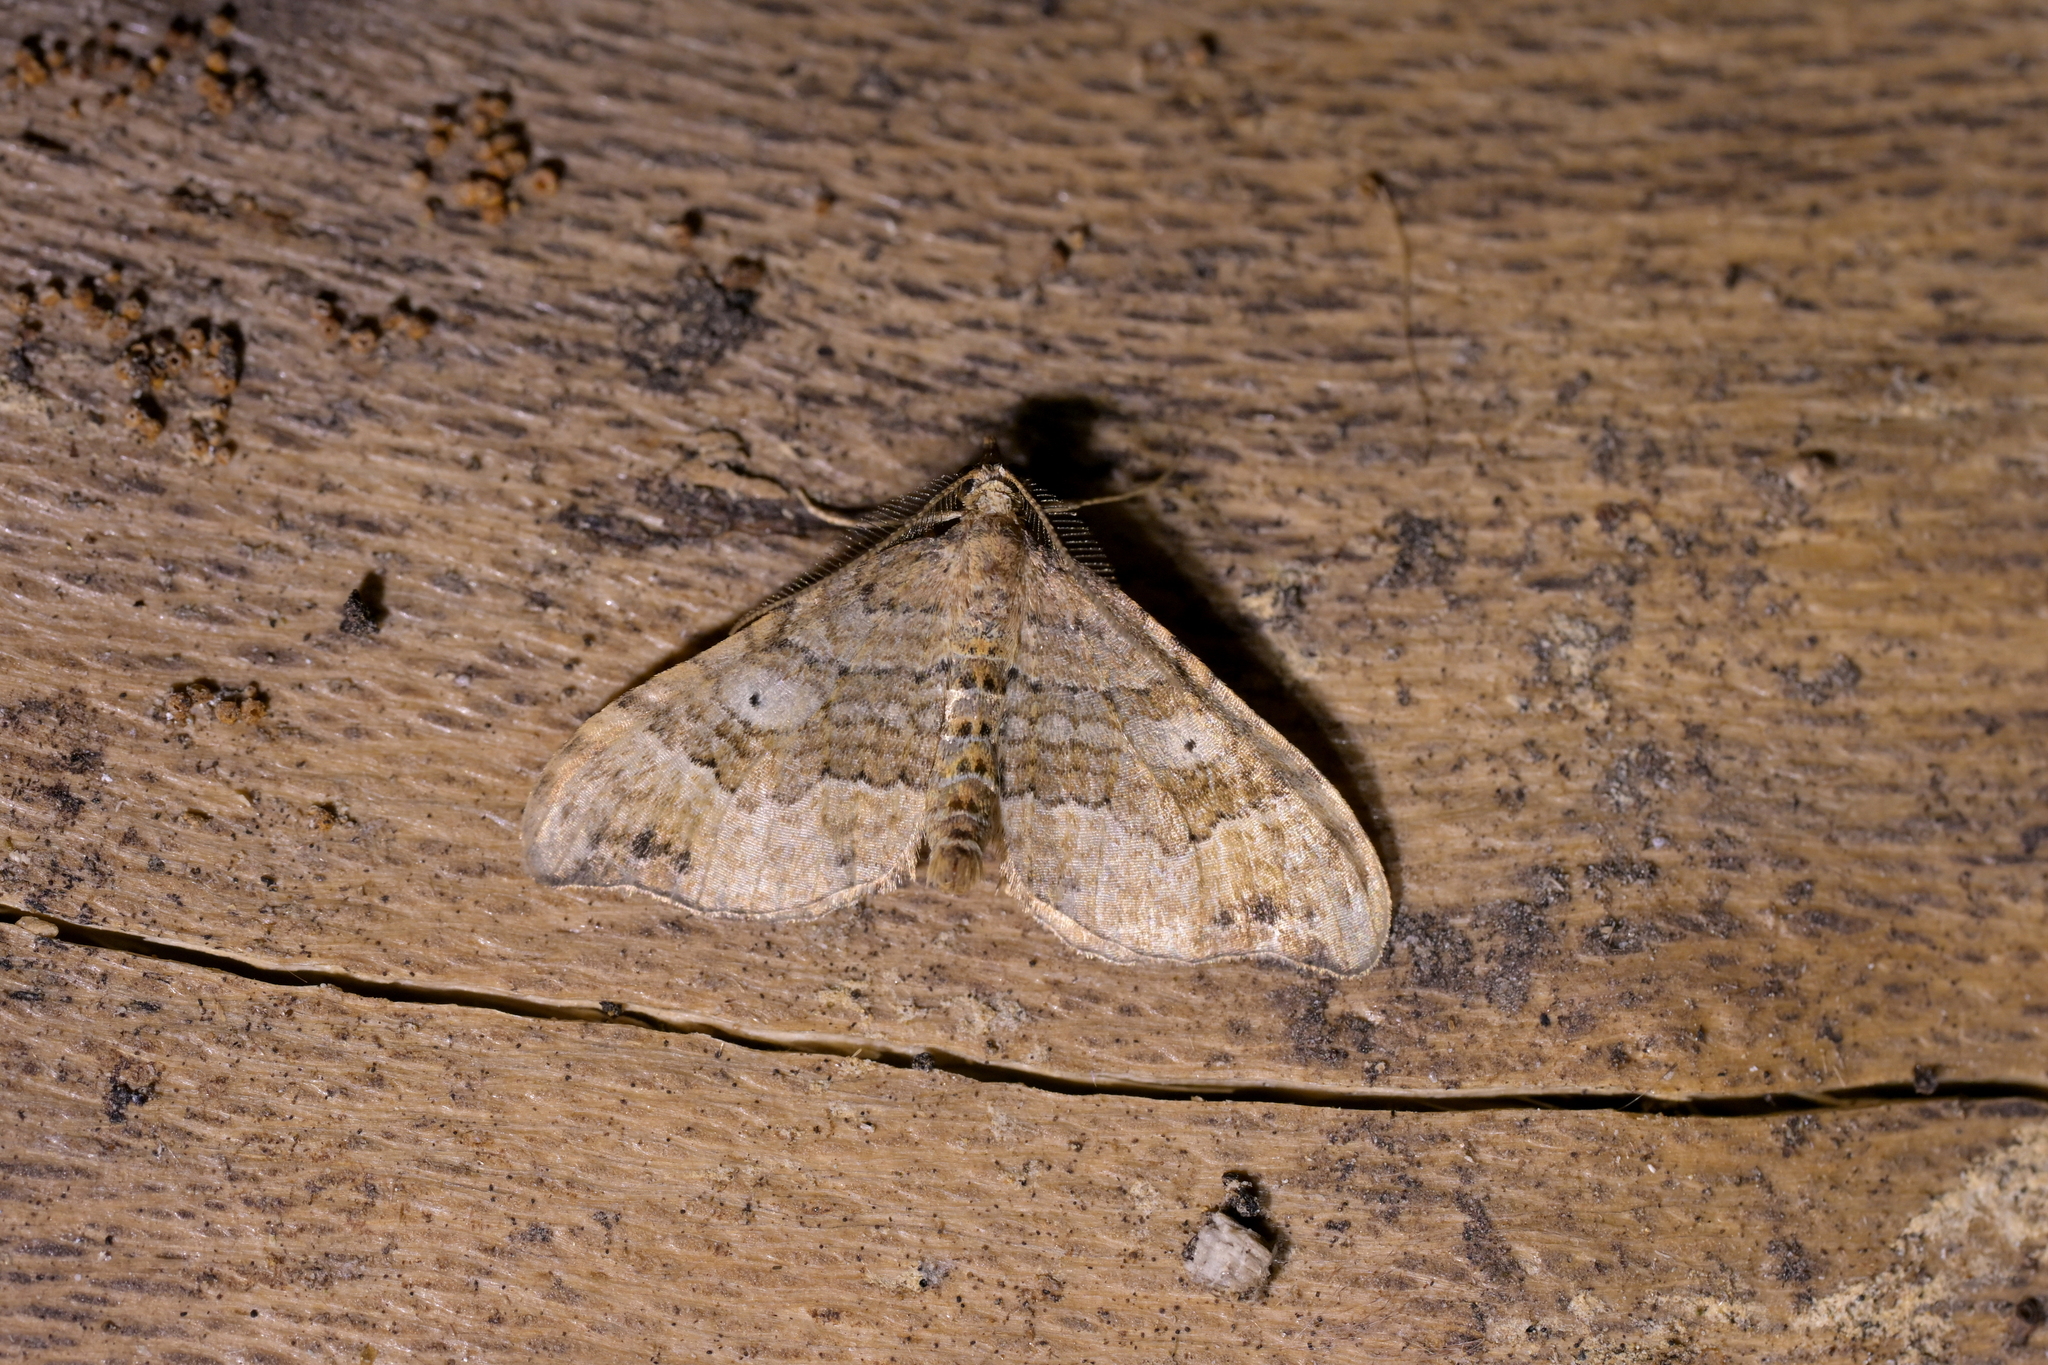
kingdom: Animalia
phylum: Arthropoda
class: Insecta
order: Lepidoptera
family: Geometridae
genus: Homodotis
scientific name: Homodotis megaspilata
